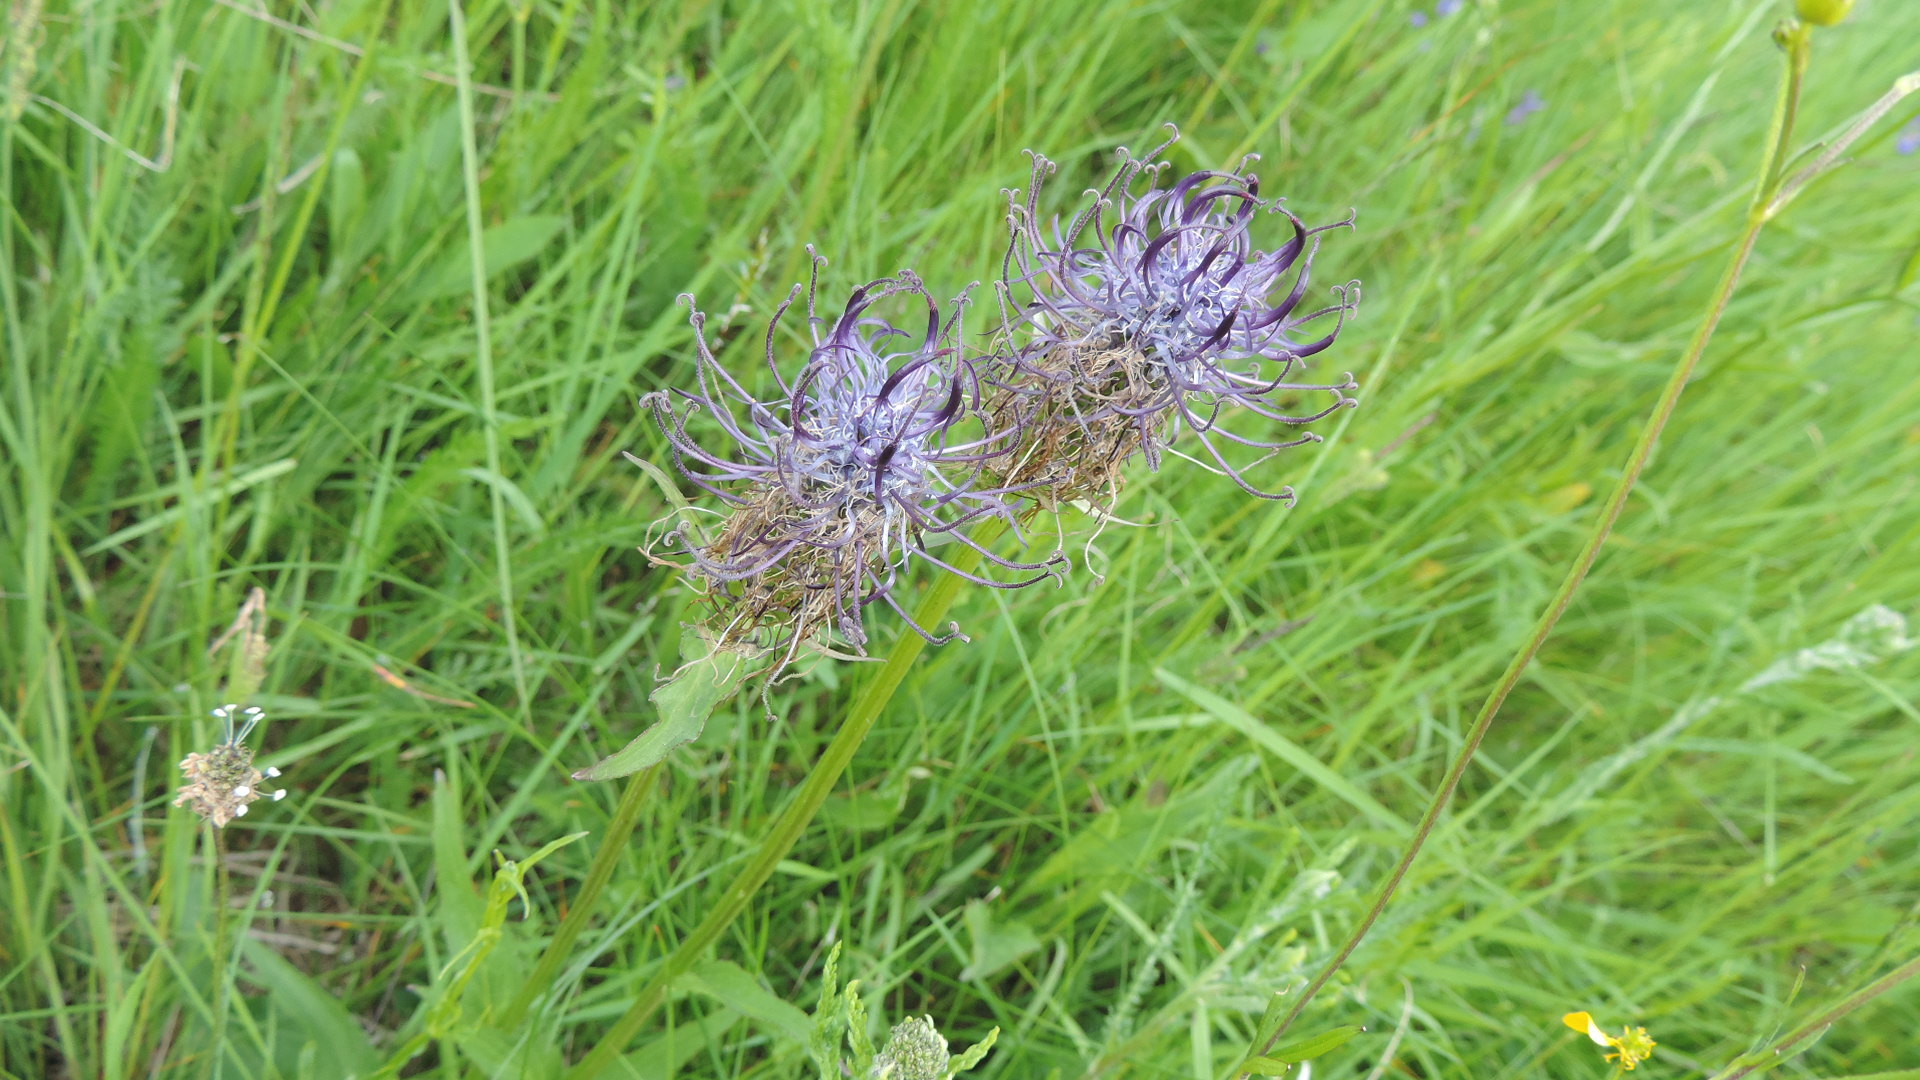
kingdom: Plantae
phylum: Tracheophyta
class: Magnoliopsida
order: Asterales
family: Campanulaceae
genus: Phyteuma
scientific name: Phyteuma vagneri
